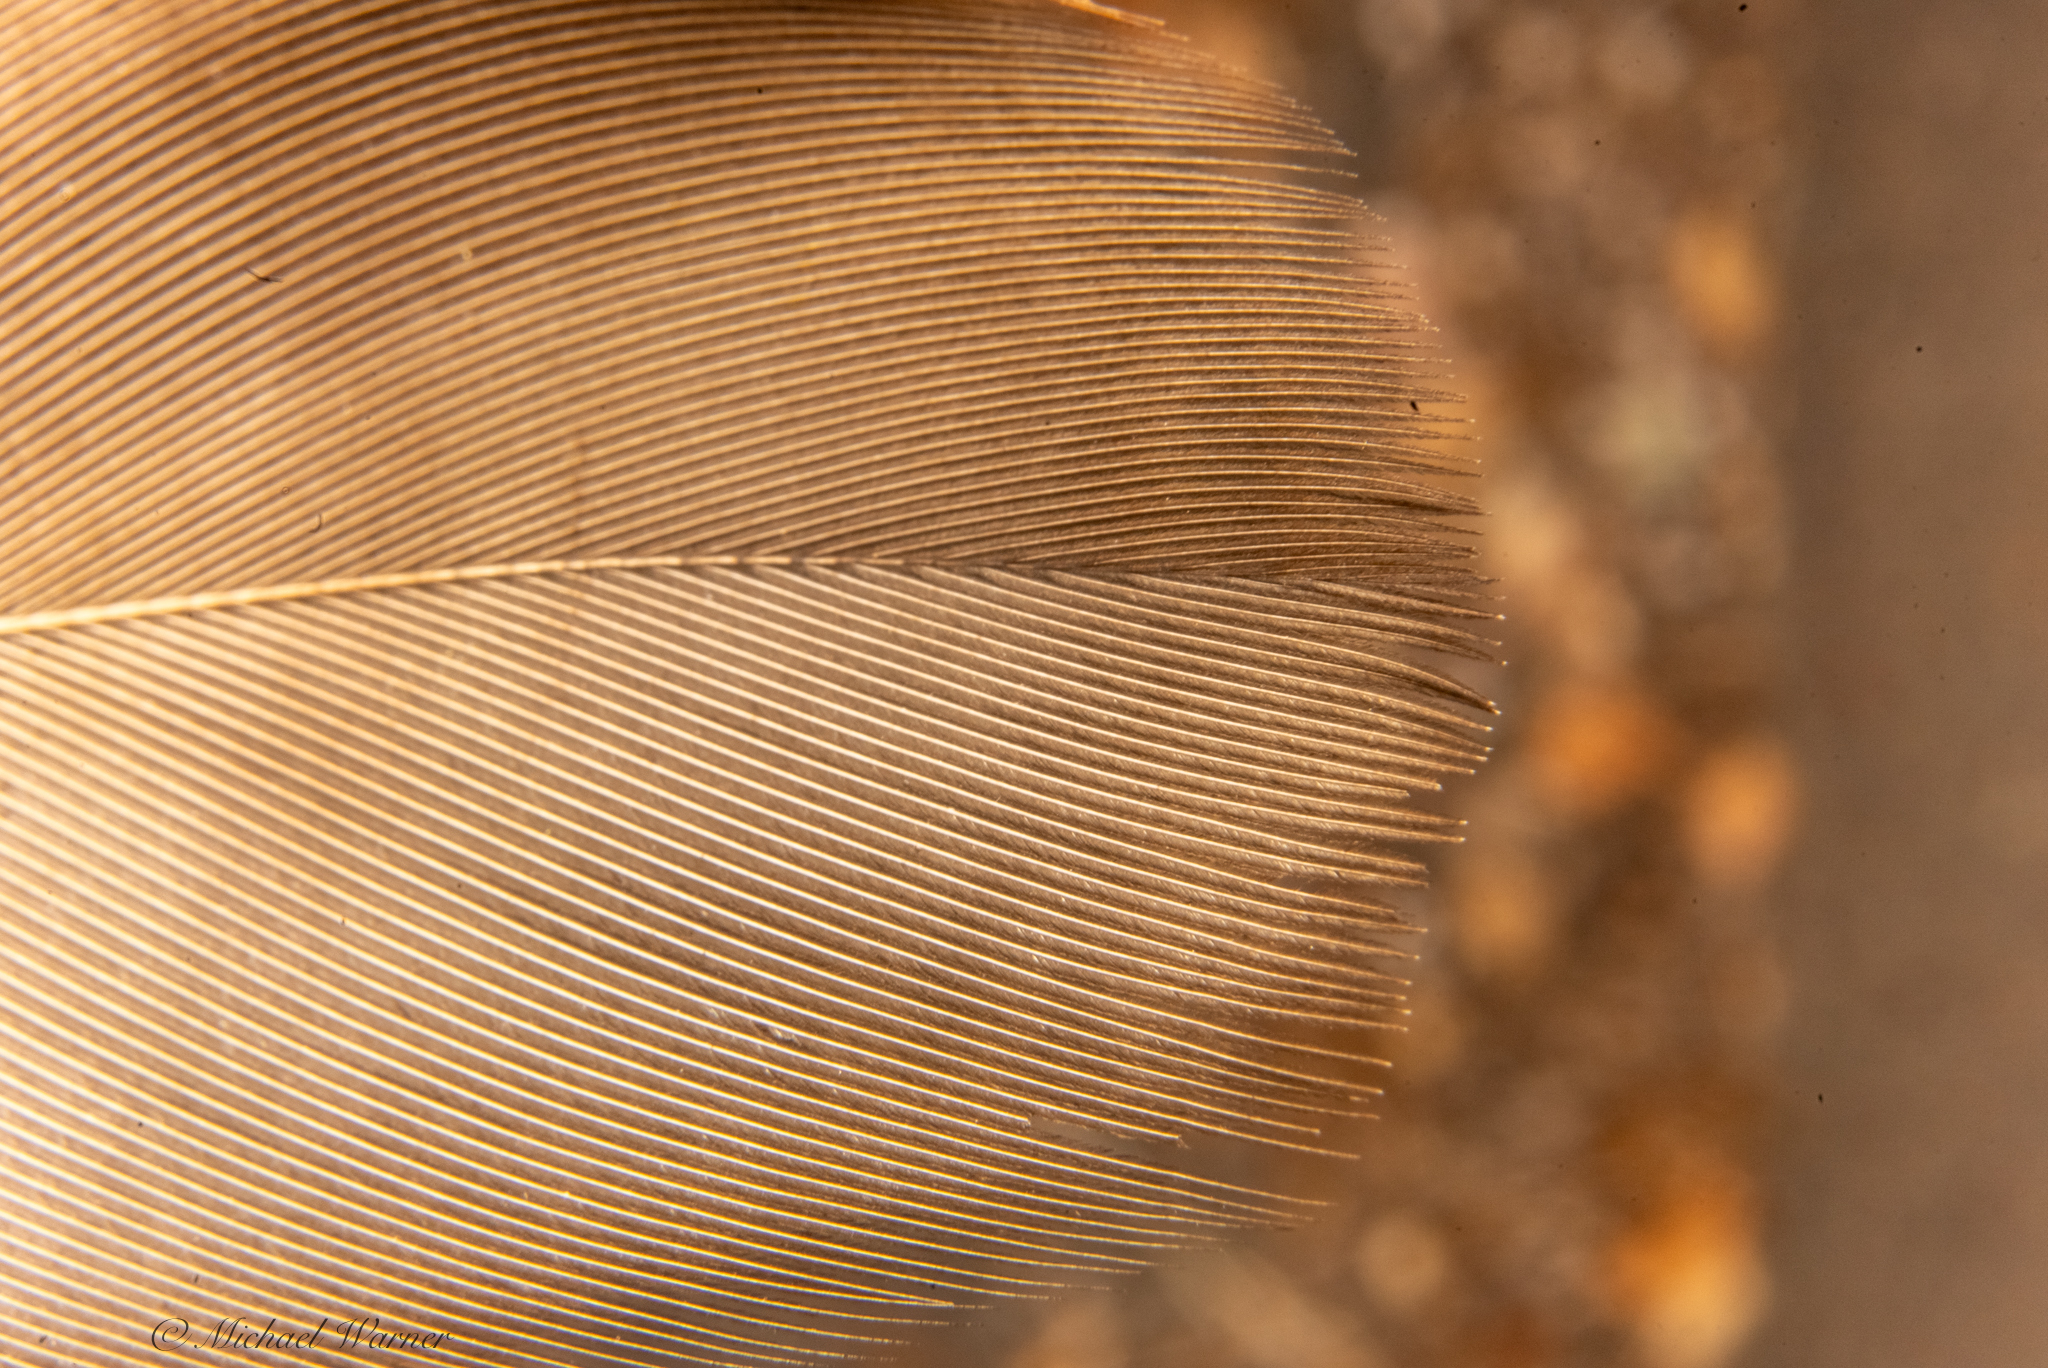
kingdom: Animalia
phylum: Chordata
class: Aves
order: Accipitriformes
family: Cathartidae
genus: Cathartes
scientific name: Cathartes aura
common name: Turkey vulture
